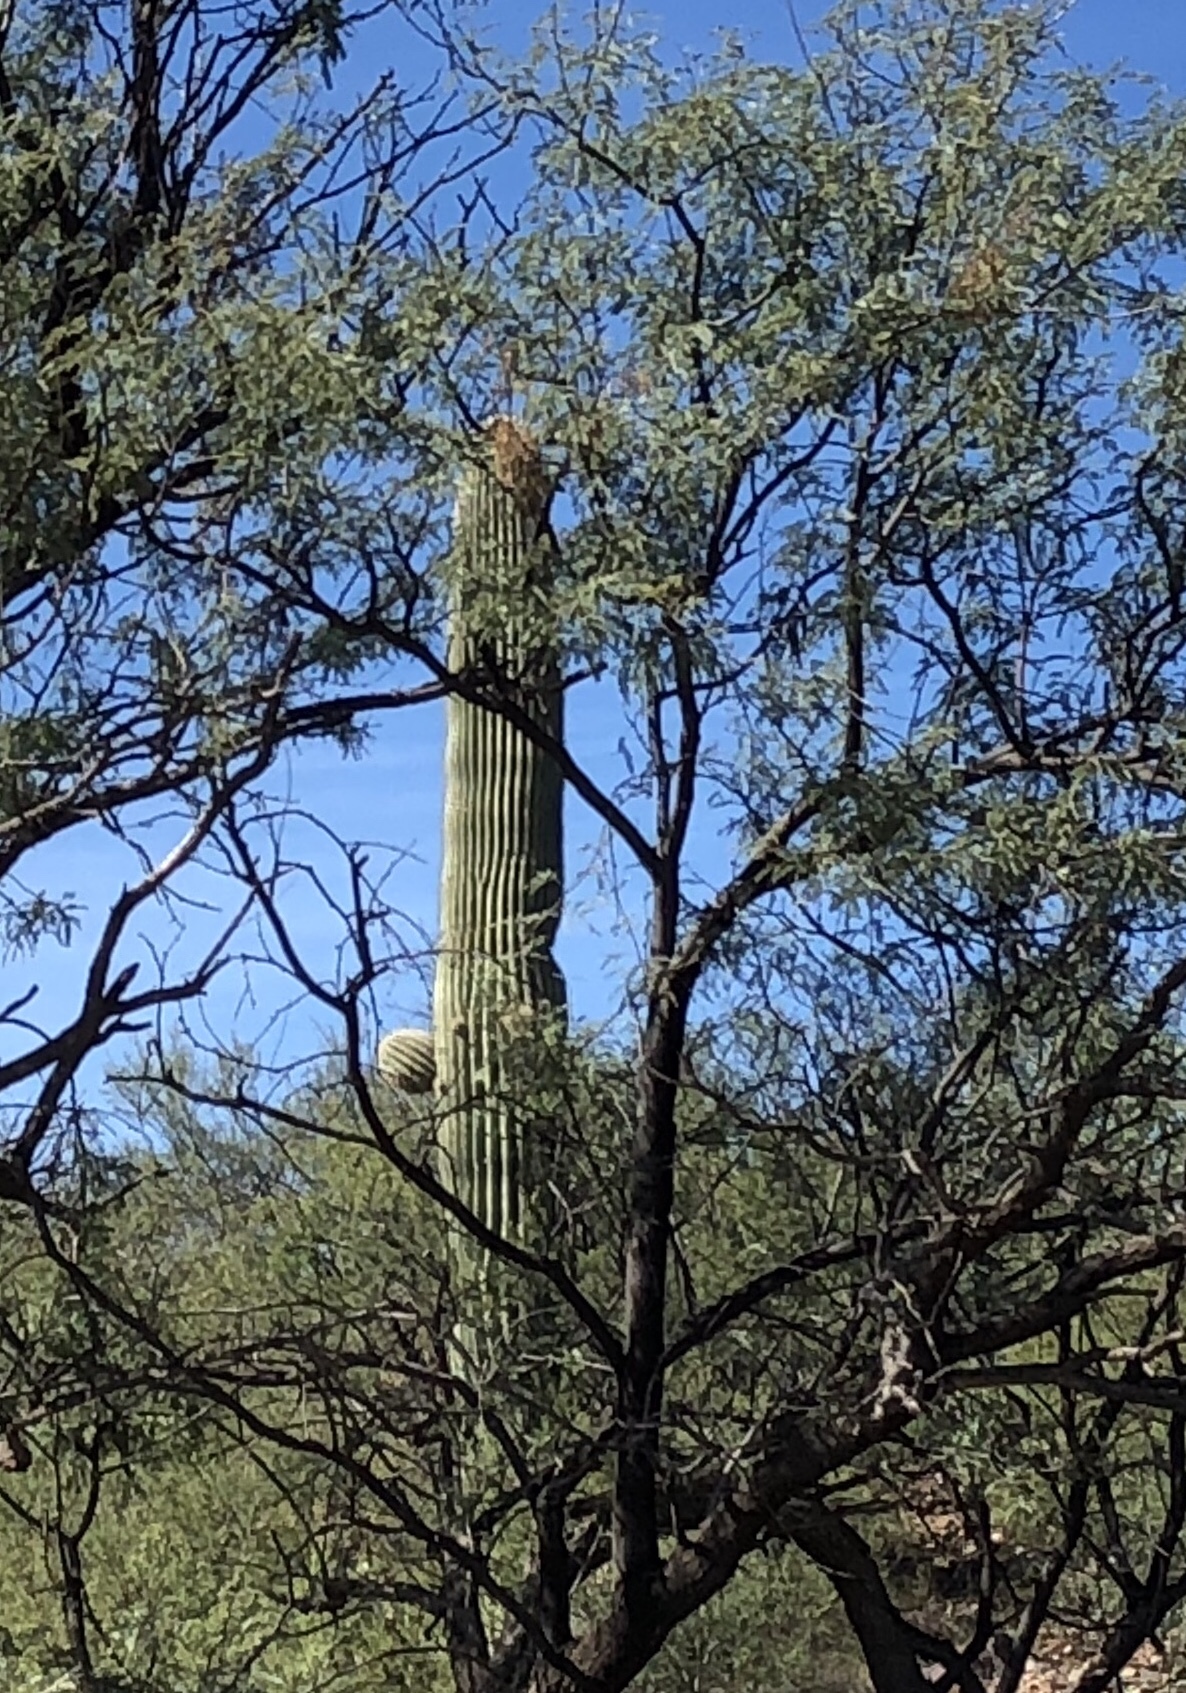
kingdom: Plantae
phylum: Tracheophyta
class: Magnoliopsida
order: Caryophyllales
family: Cactaceae
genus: Carnegiea
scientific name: Carnegiea gigantea
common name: Saguaro
